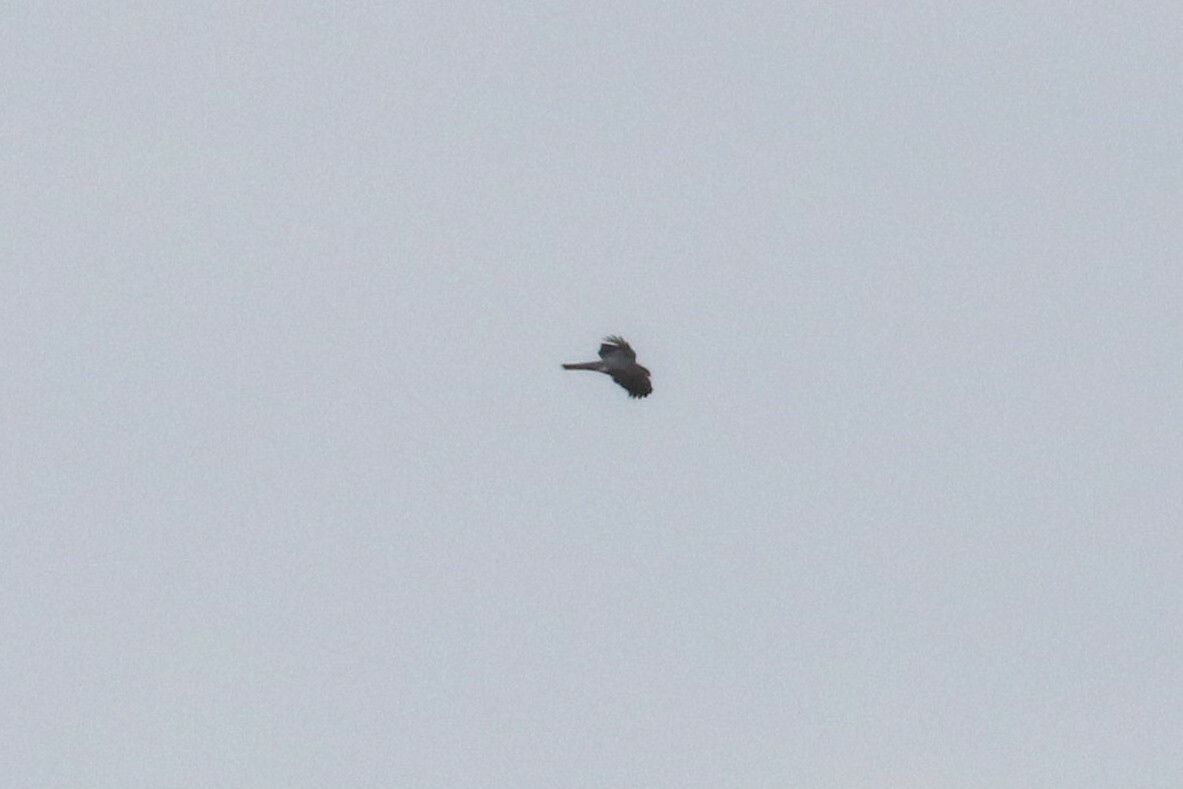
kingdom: Animalia
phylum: Chordata
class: Aves
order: Accipitriformes
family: Accipitridae
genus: Accipiter
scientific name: Accipiter nisus
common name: Eurasian sparrowhawk
